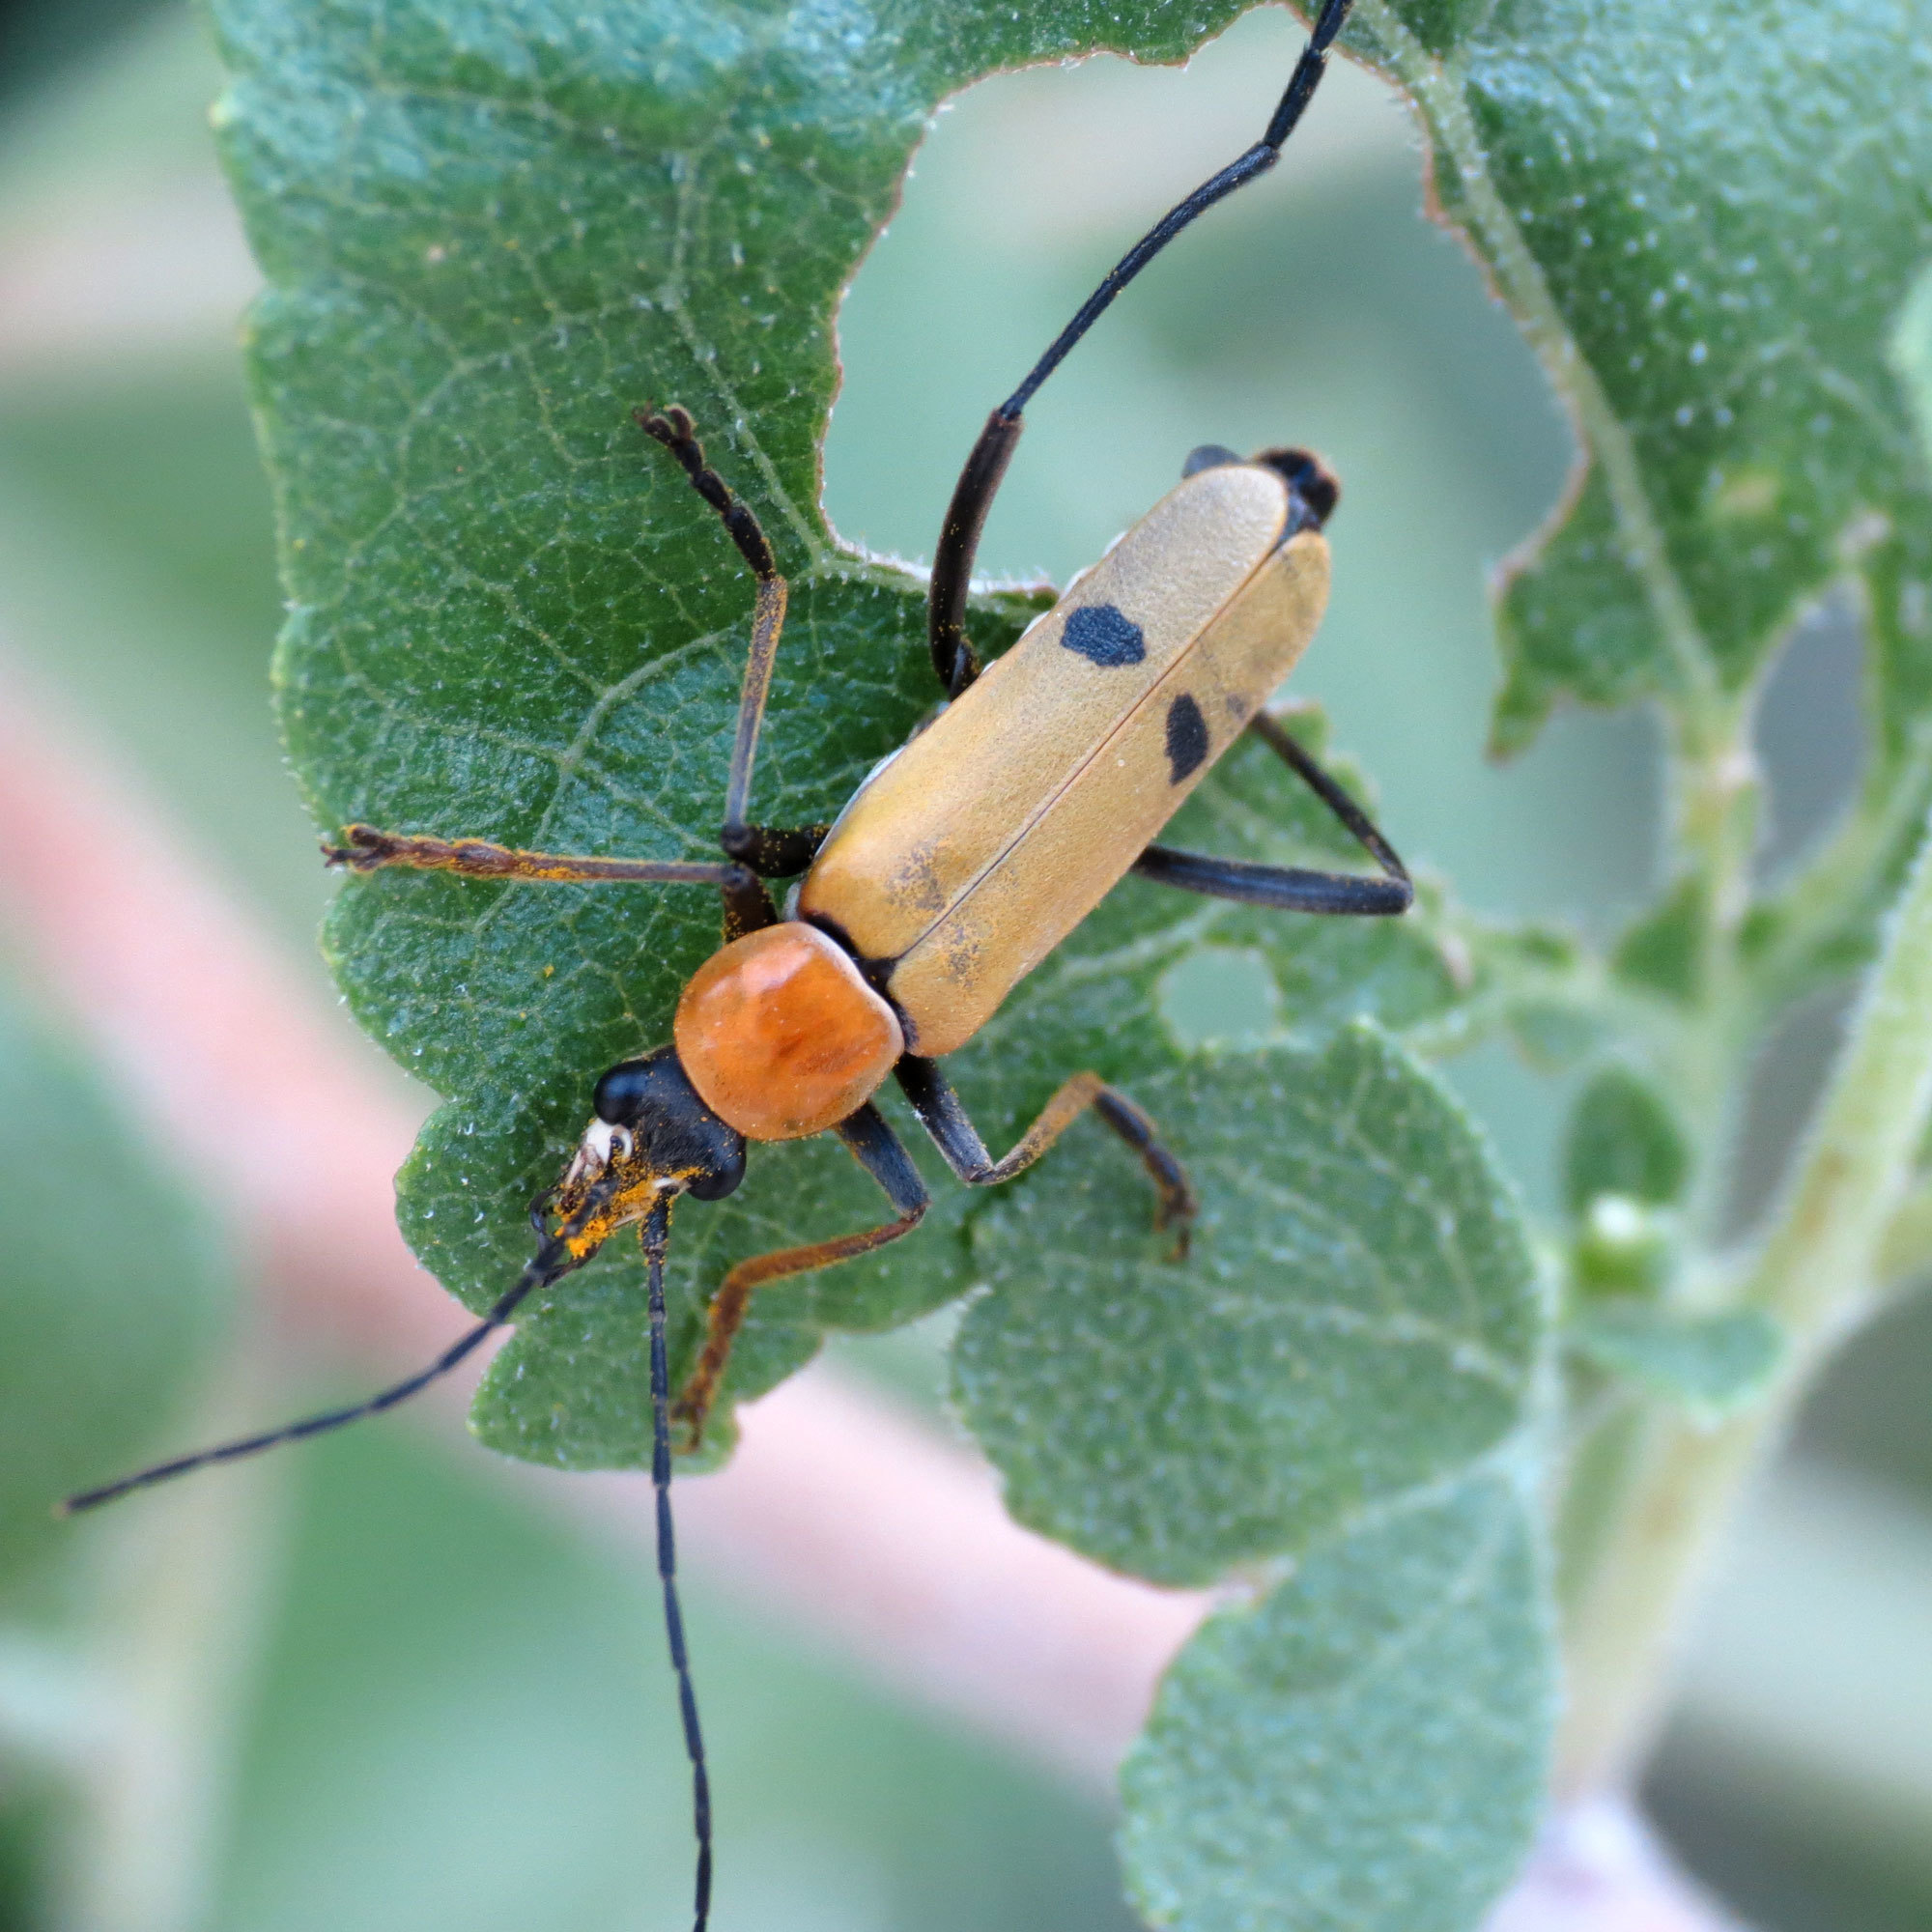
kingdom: Animalia
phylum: Arthropoda
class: Insecta
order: Coleoptera
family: Cantharidae
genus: Chauliognathus
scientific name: Chauliognathus misellus
